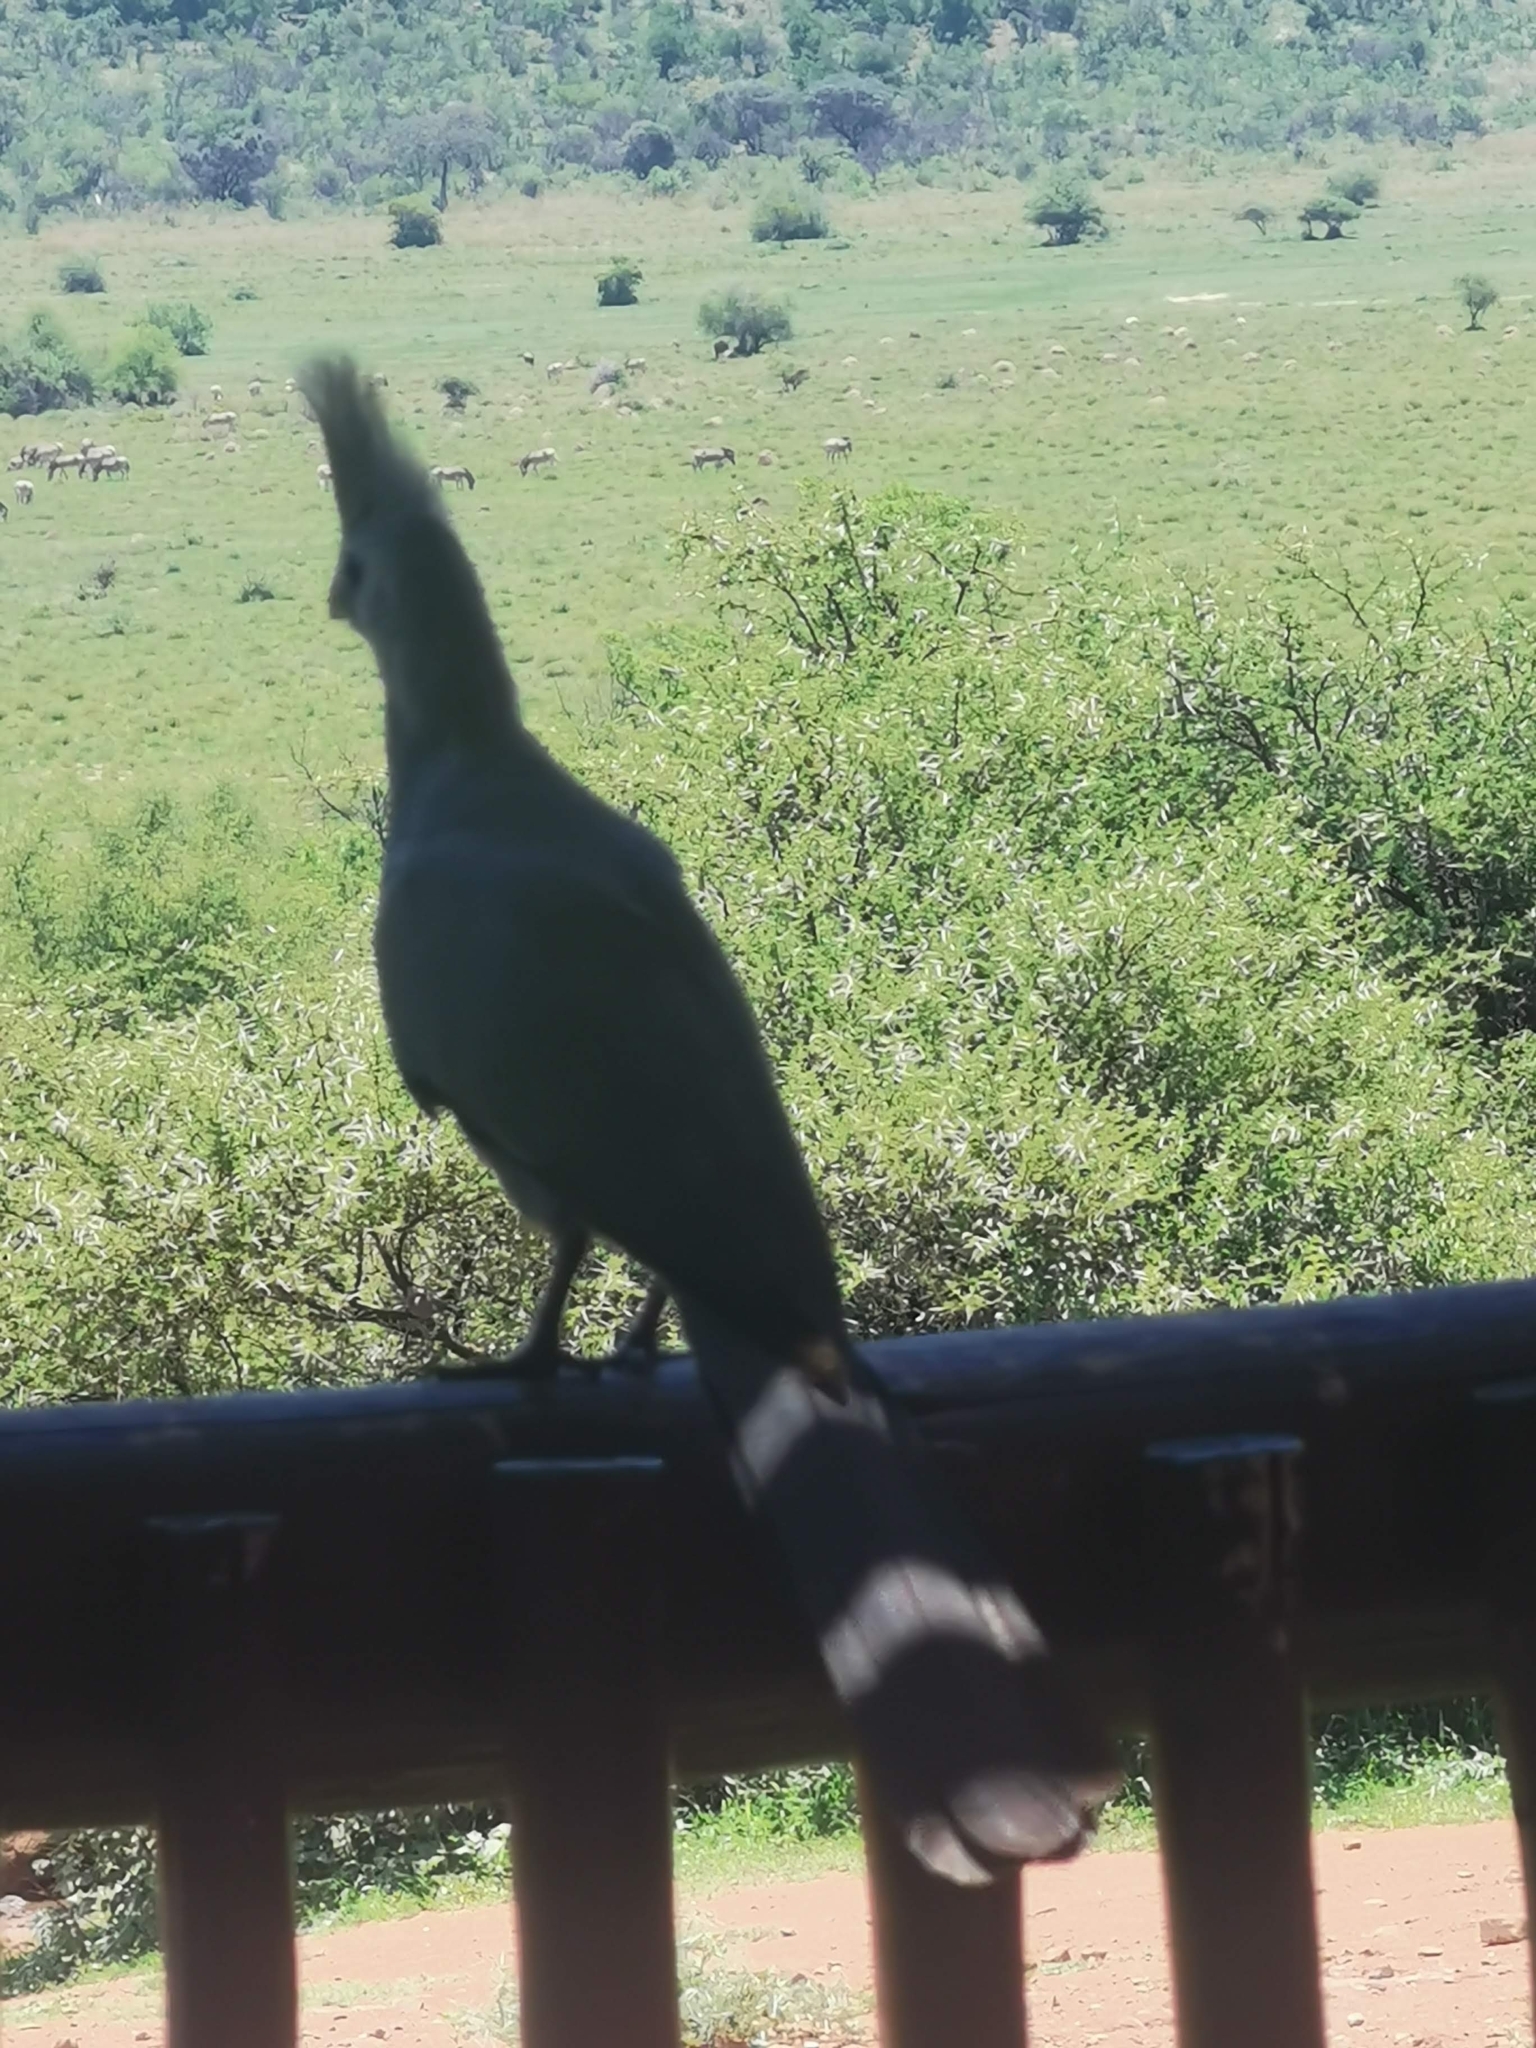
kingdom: Animalia
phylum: Chordata
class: Aves
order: Musophagiformes
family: Musophagidae
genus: Corythaixoides
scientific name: Corythaixoides concolor
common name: Grey go-away-bird
